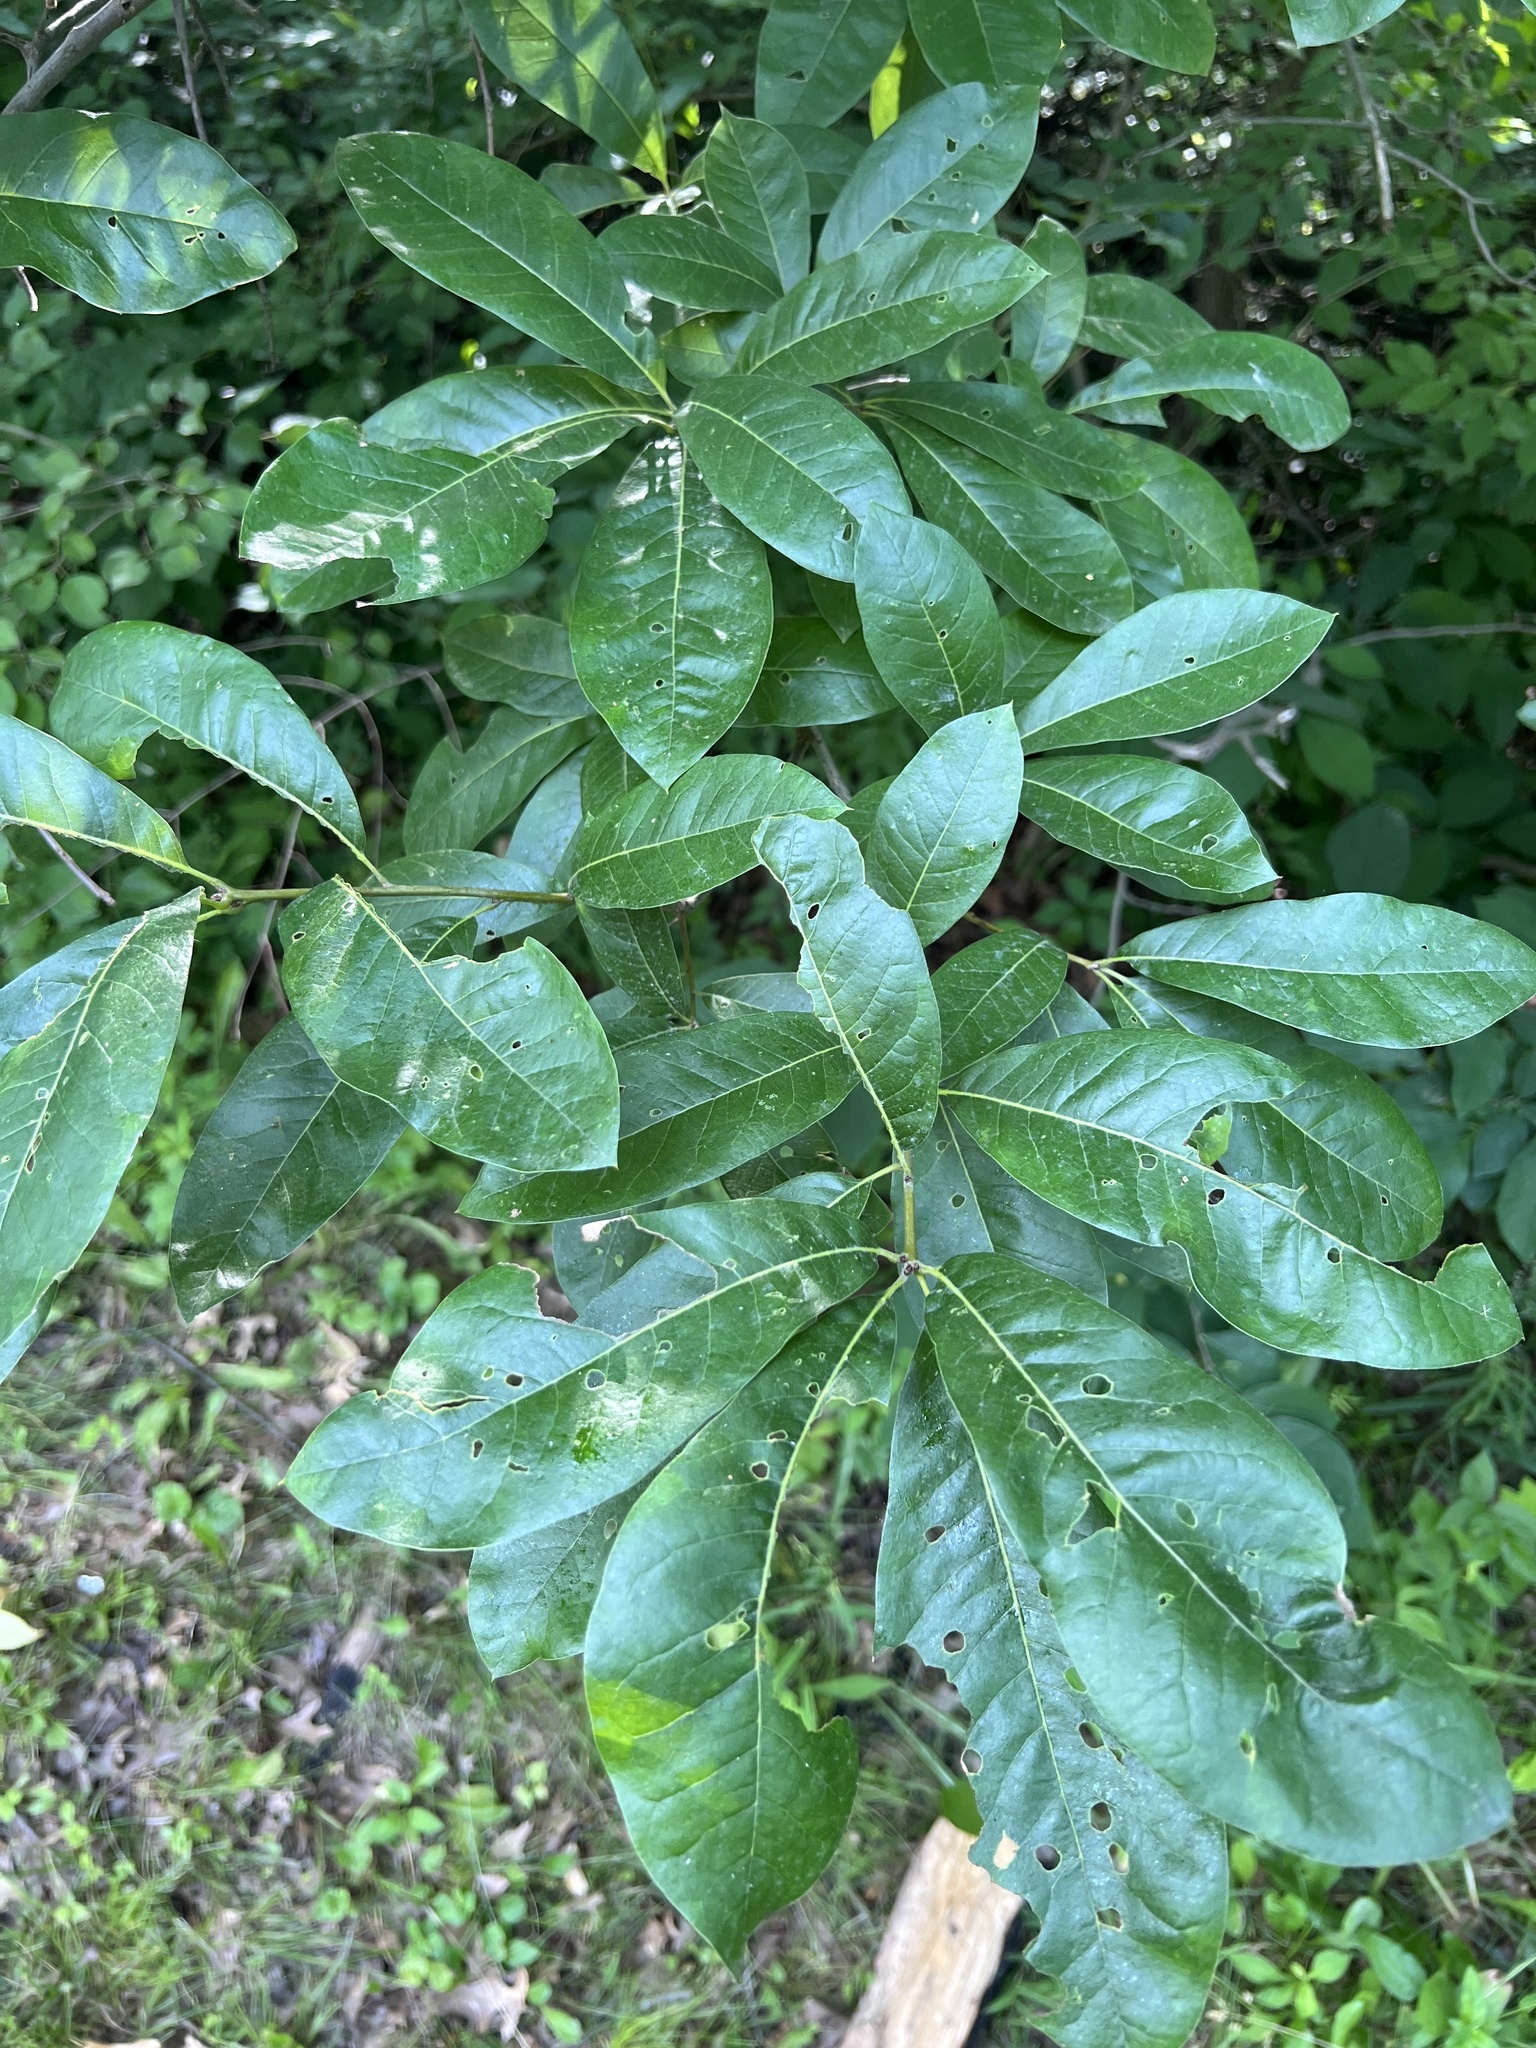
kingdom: Plantae
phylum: Tracheophyta
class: Magnoliopsida
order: Fagales
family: Fagaceae
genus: Quercus
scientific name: Quercus imbricaria
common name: Shingle oak
